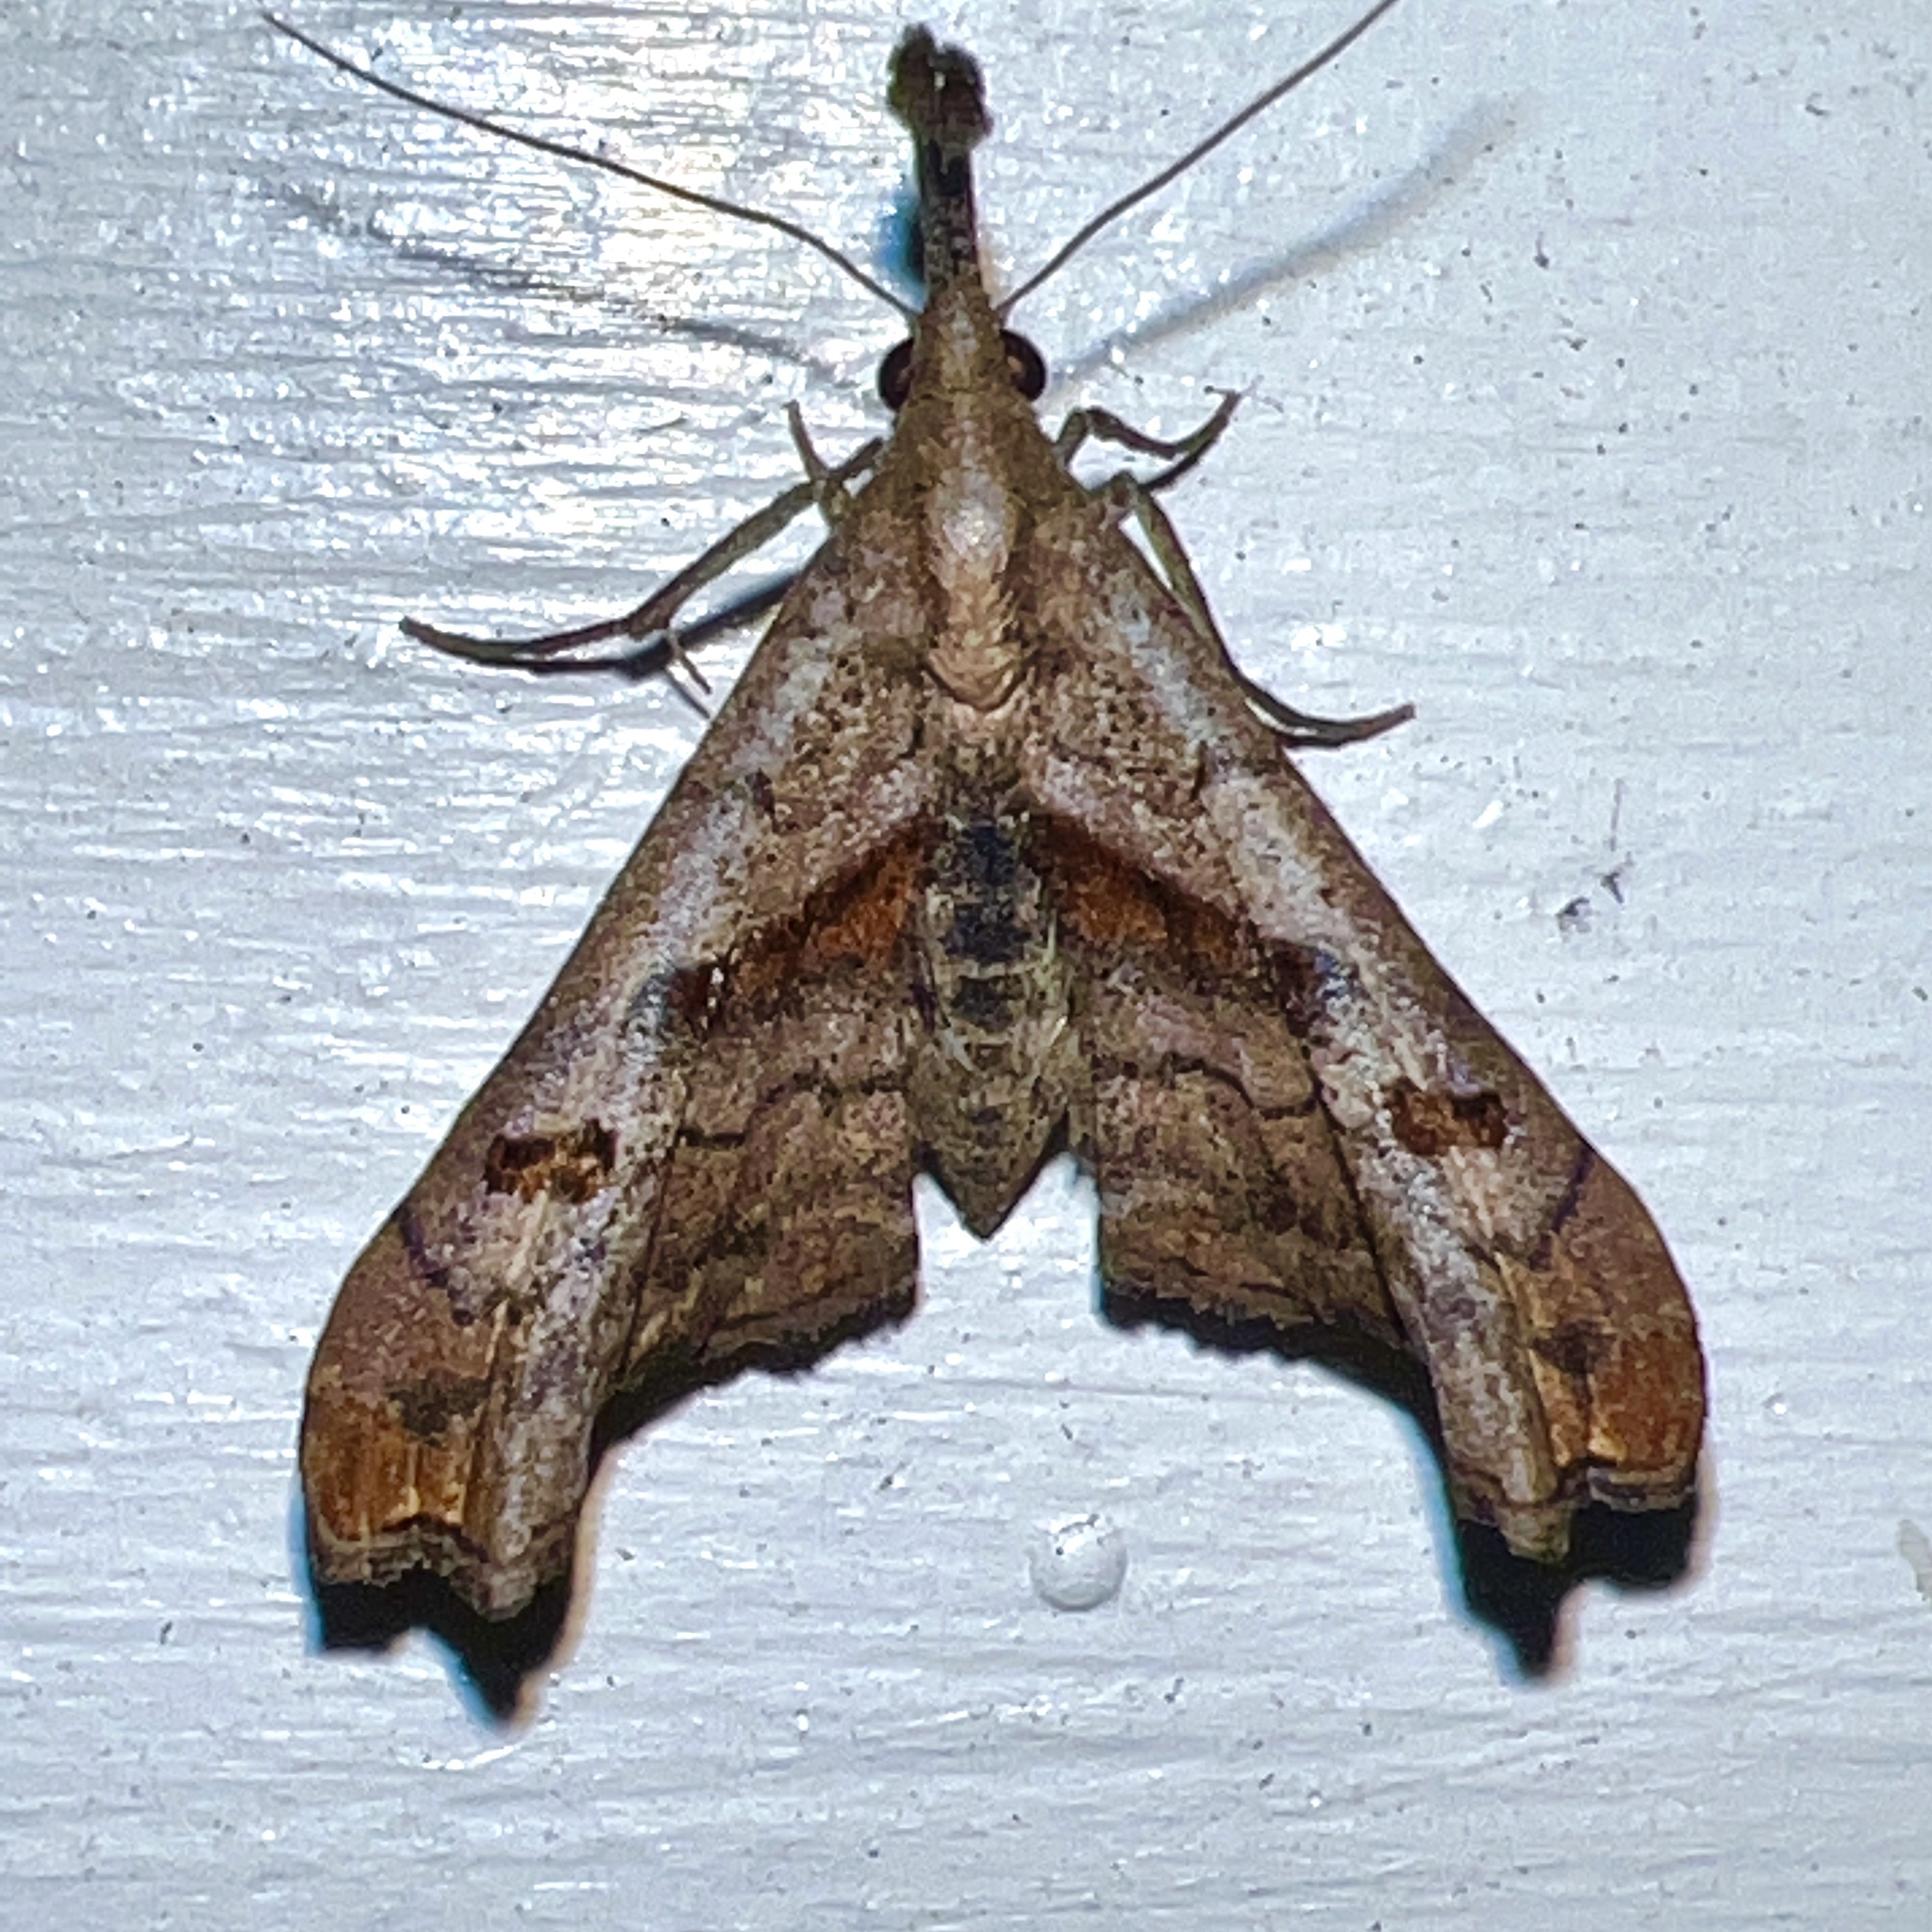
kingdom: Animalia
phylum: Arthropoda
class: Insecta
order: Lepidoptera
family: Erebidae
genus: Palthis
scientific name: Palthis angulalis
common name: Dark-spotted palthis moth
